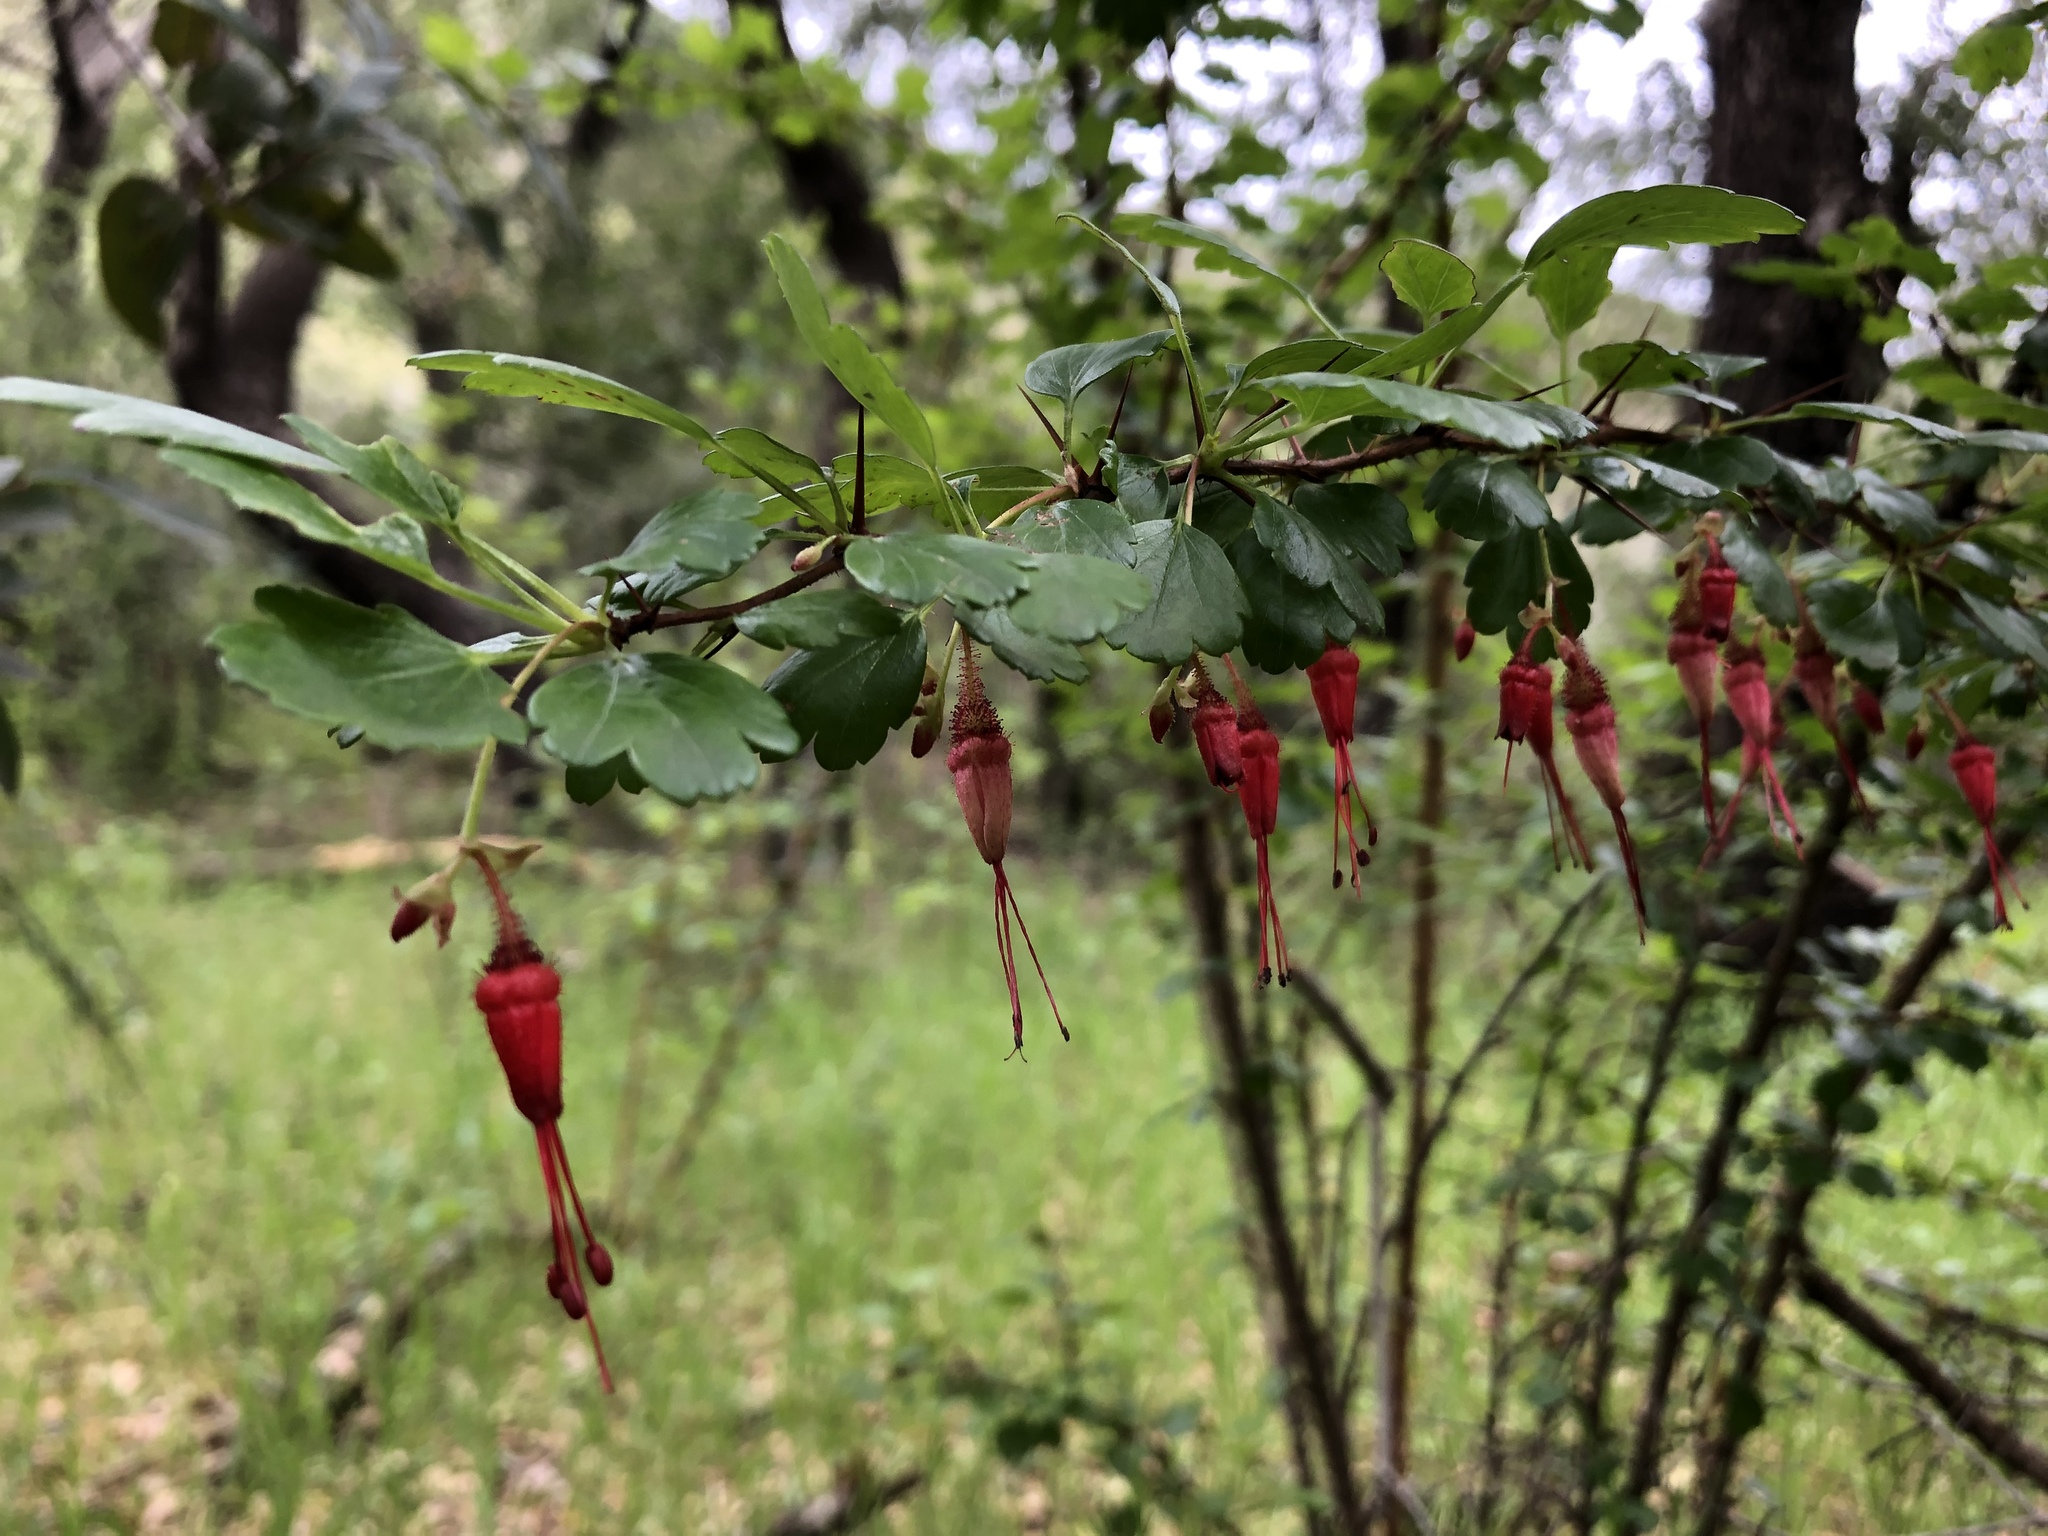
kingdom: Plantae
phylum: Tracheophyta
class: Magnoliopsida
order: Saxifragales
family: Grossulariaceae
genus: Ribes
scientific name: Ribes speciosum
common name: Fuchsia-flower gooseberry
